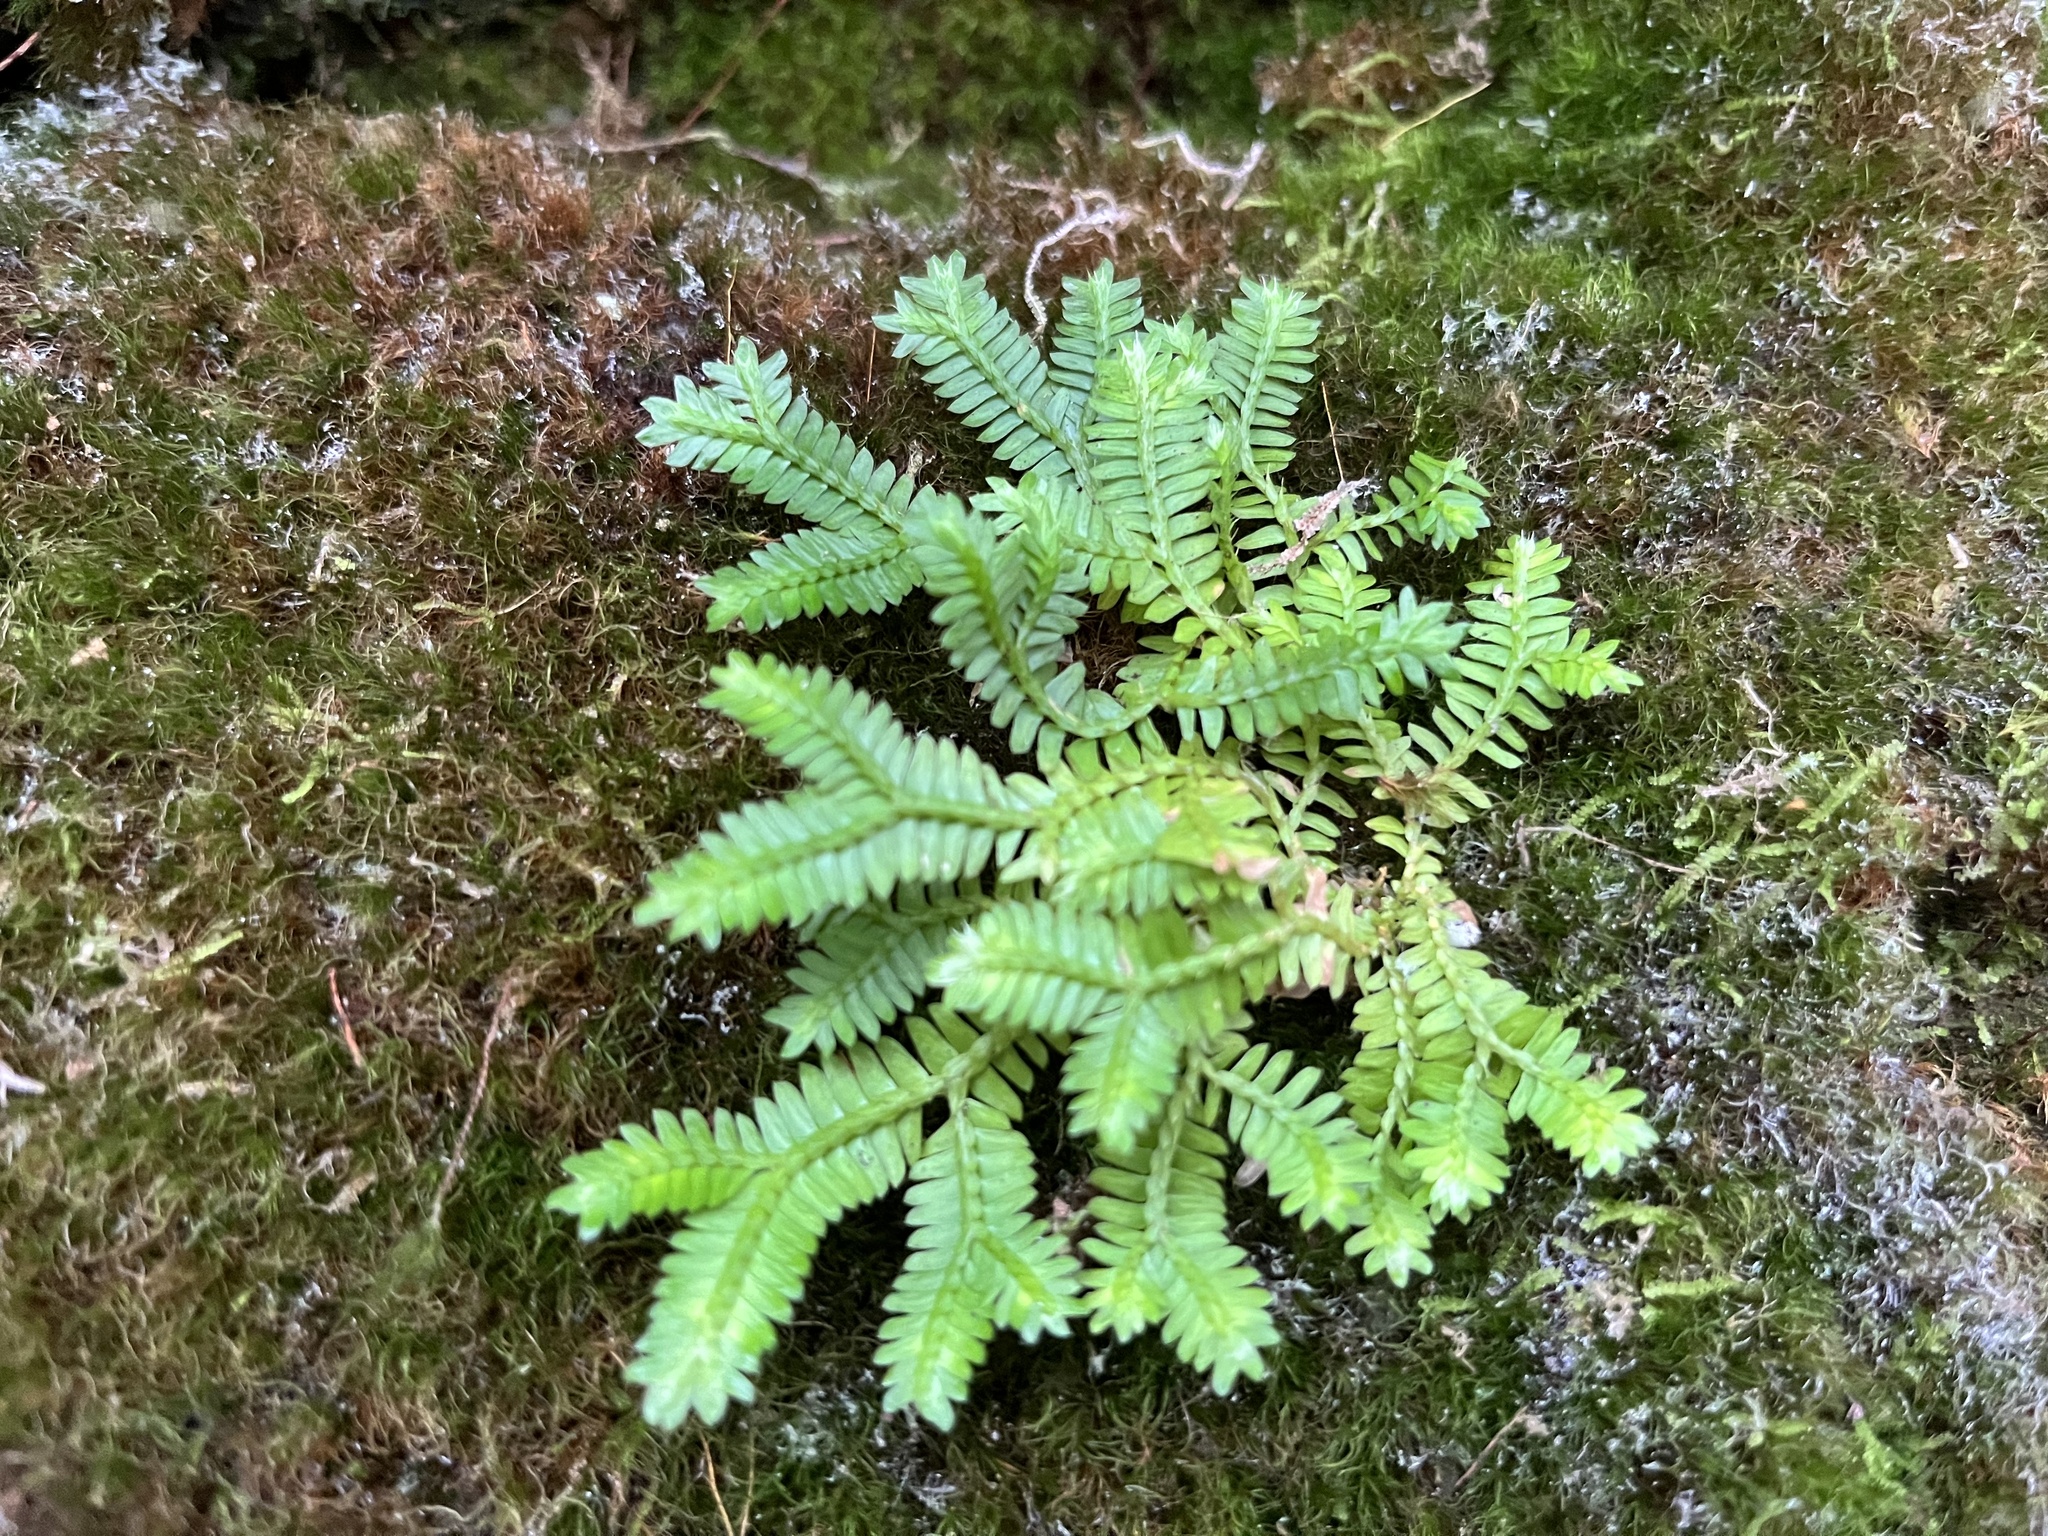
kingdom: Plantae
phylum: Tracheophyta
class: Lycopodiopsida
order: Selaginellales
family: Selaginellaceae
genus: Selaginella
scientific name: Selaginella doederleinii
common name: Greater selaginella
